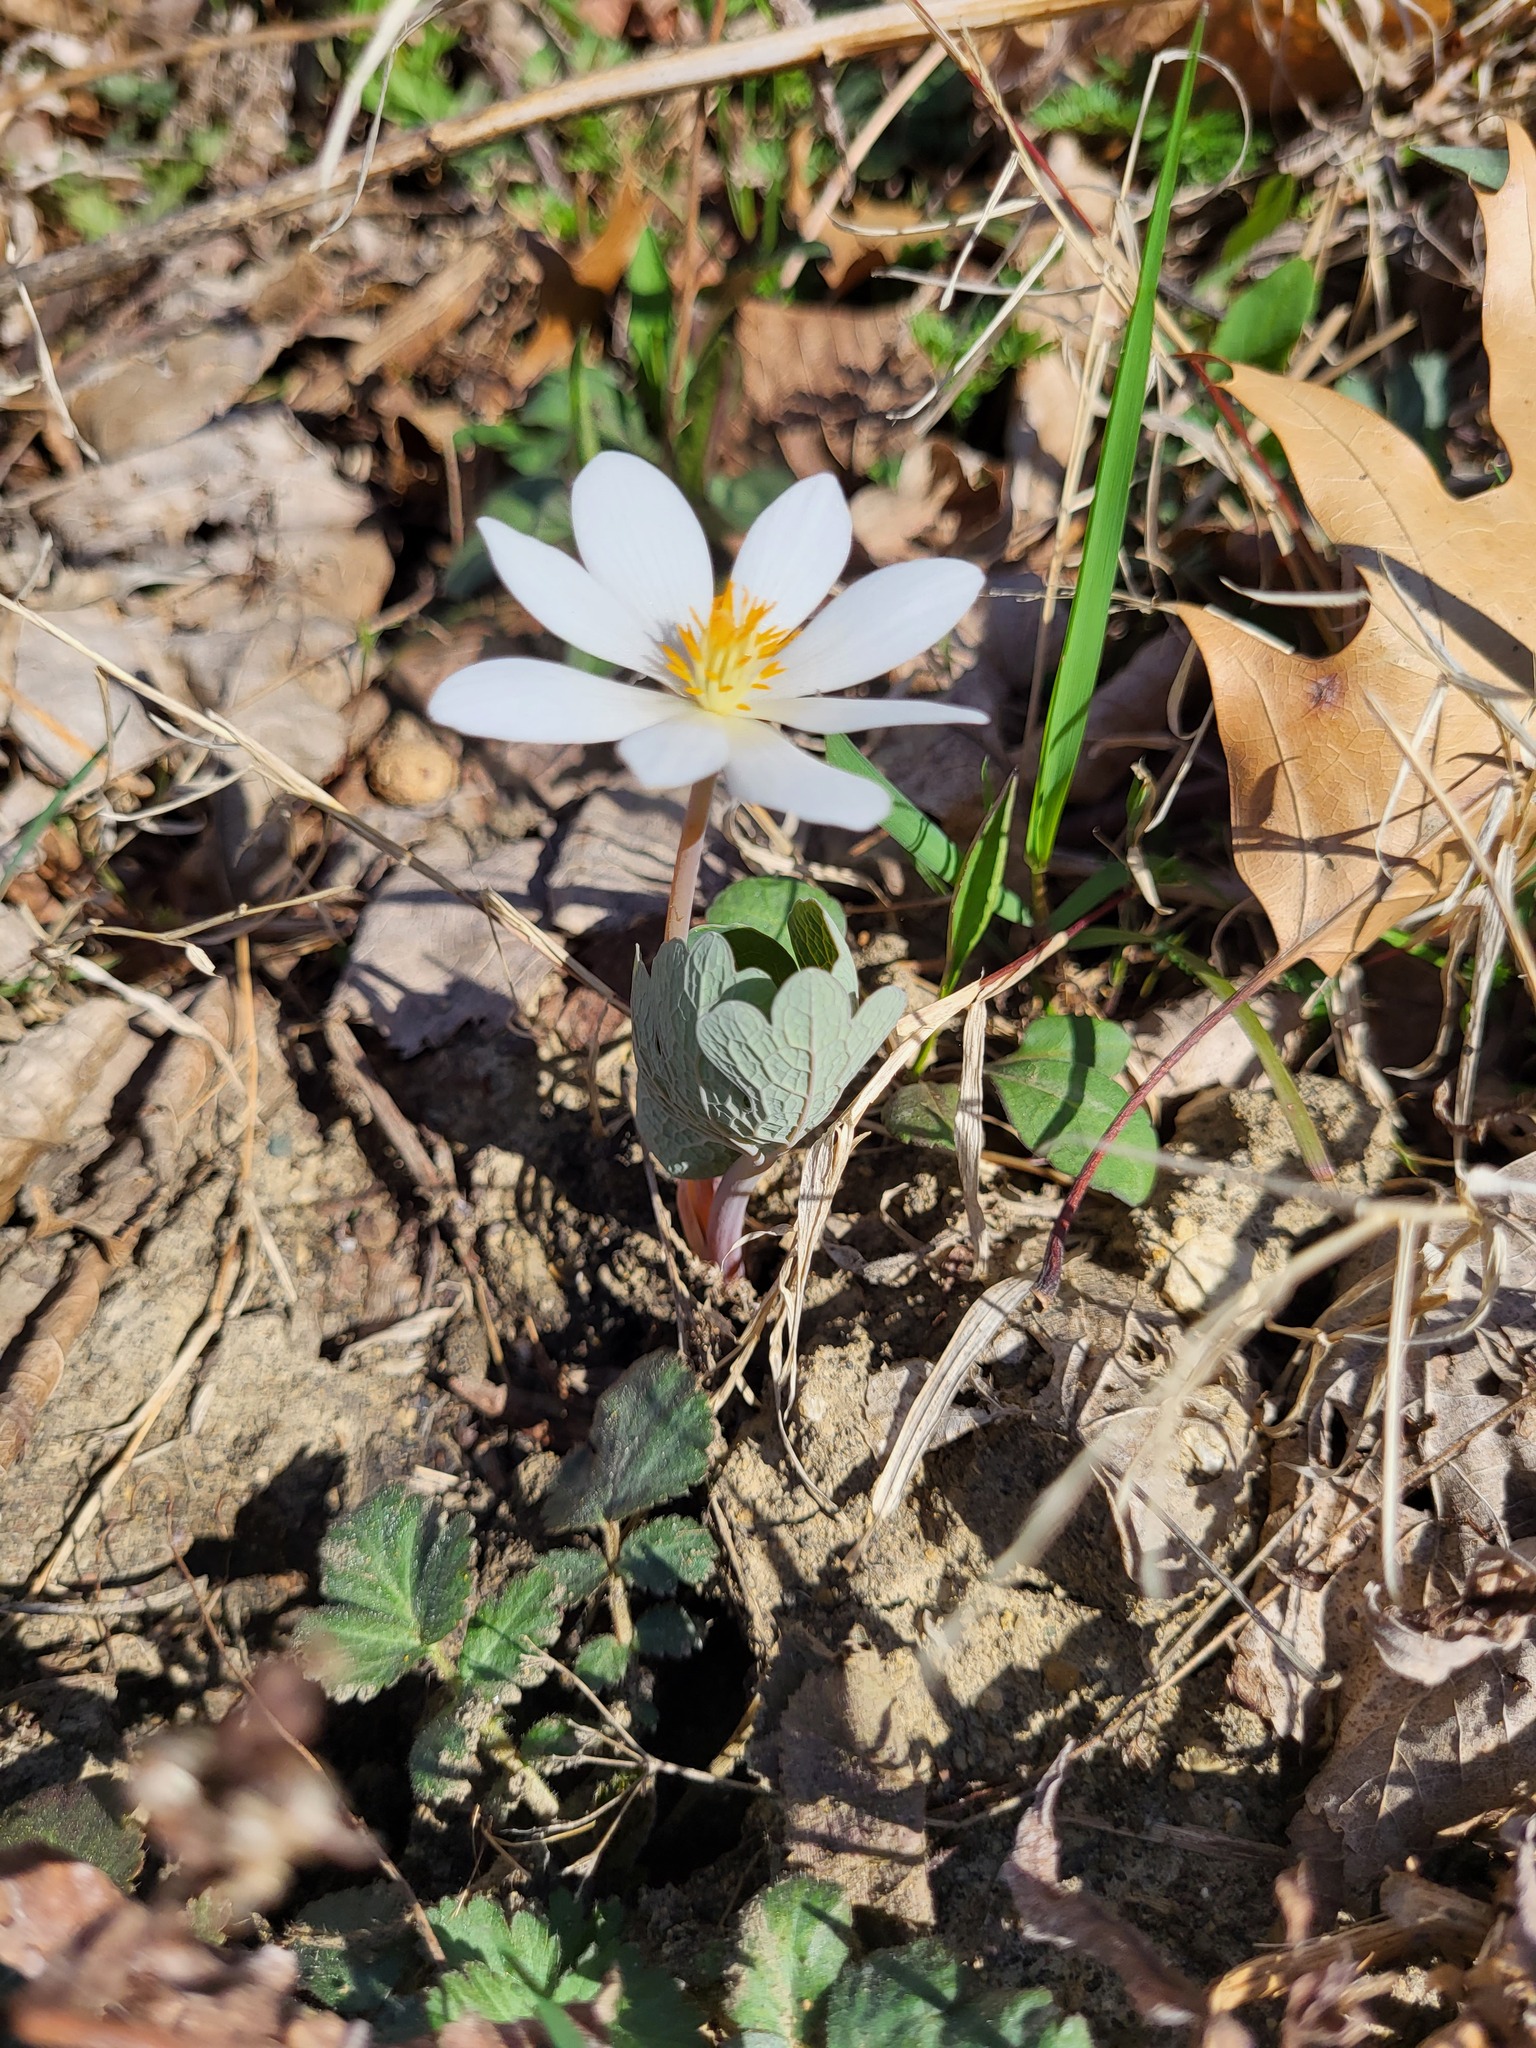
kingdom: Plantae
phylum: Tracheophyta
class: Magnoliopsida
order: Ranunculales
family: Papaveraceae
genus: Sanguinaria
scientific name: Sanguinaria canadensis
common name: Bloodroot
